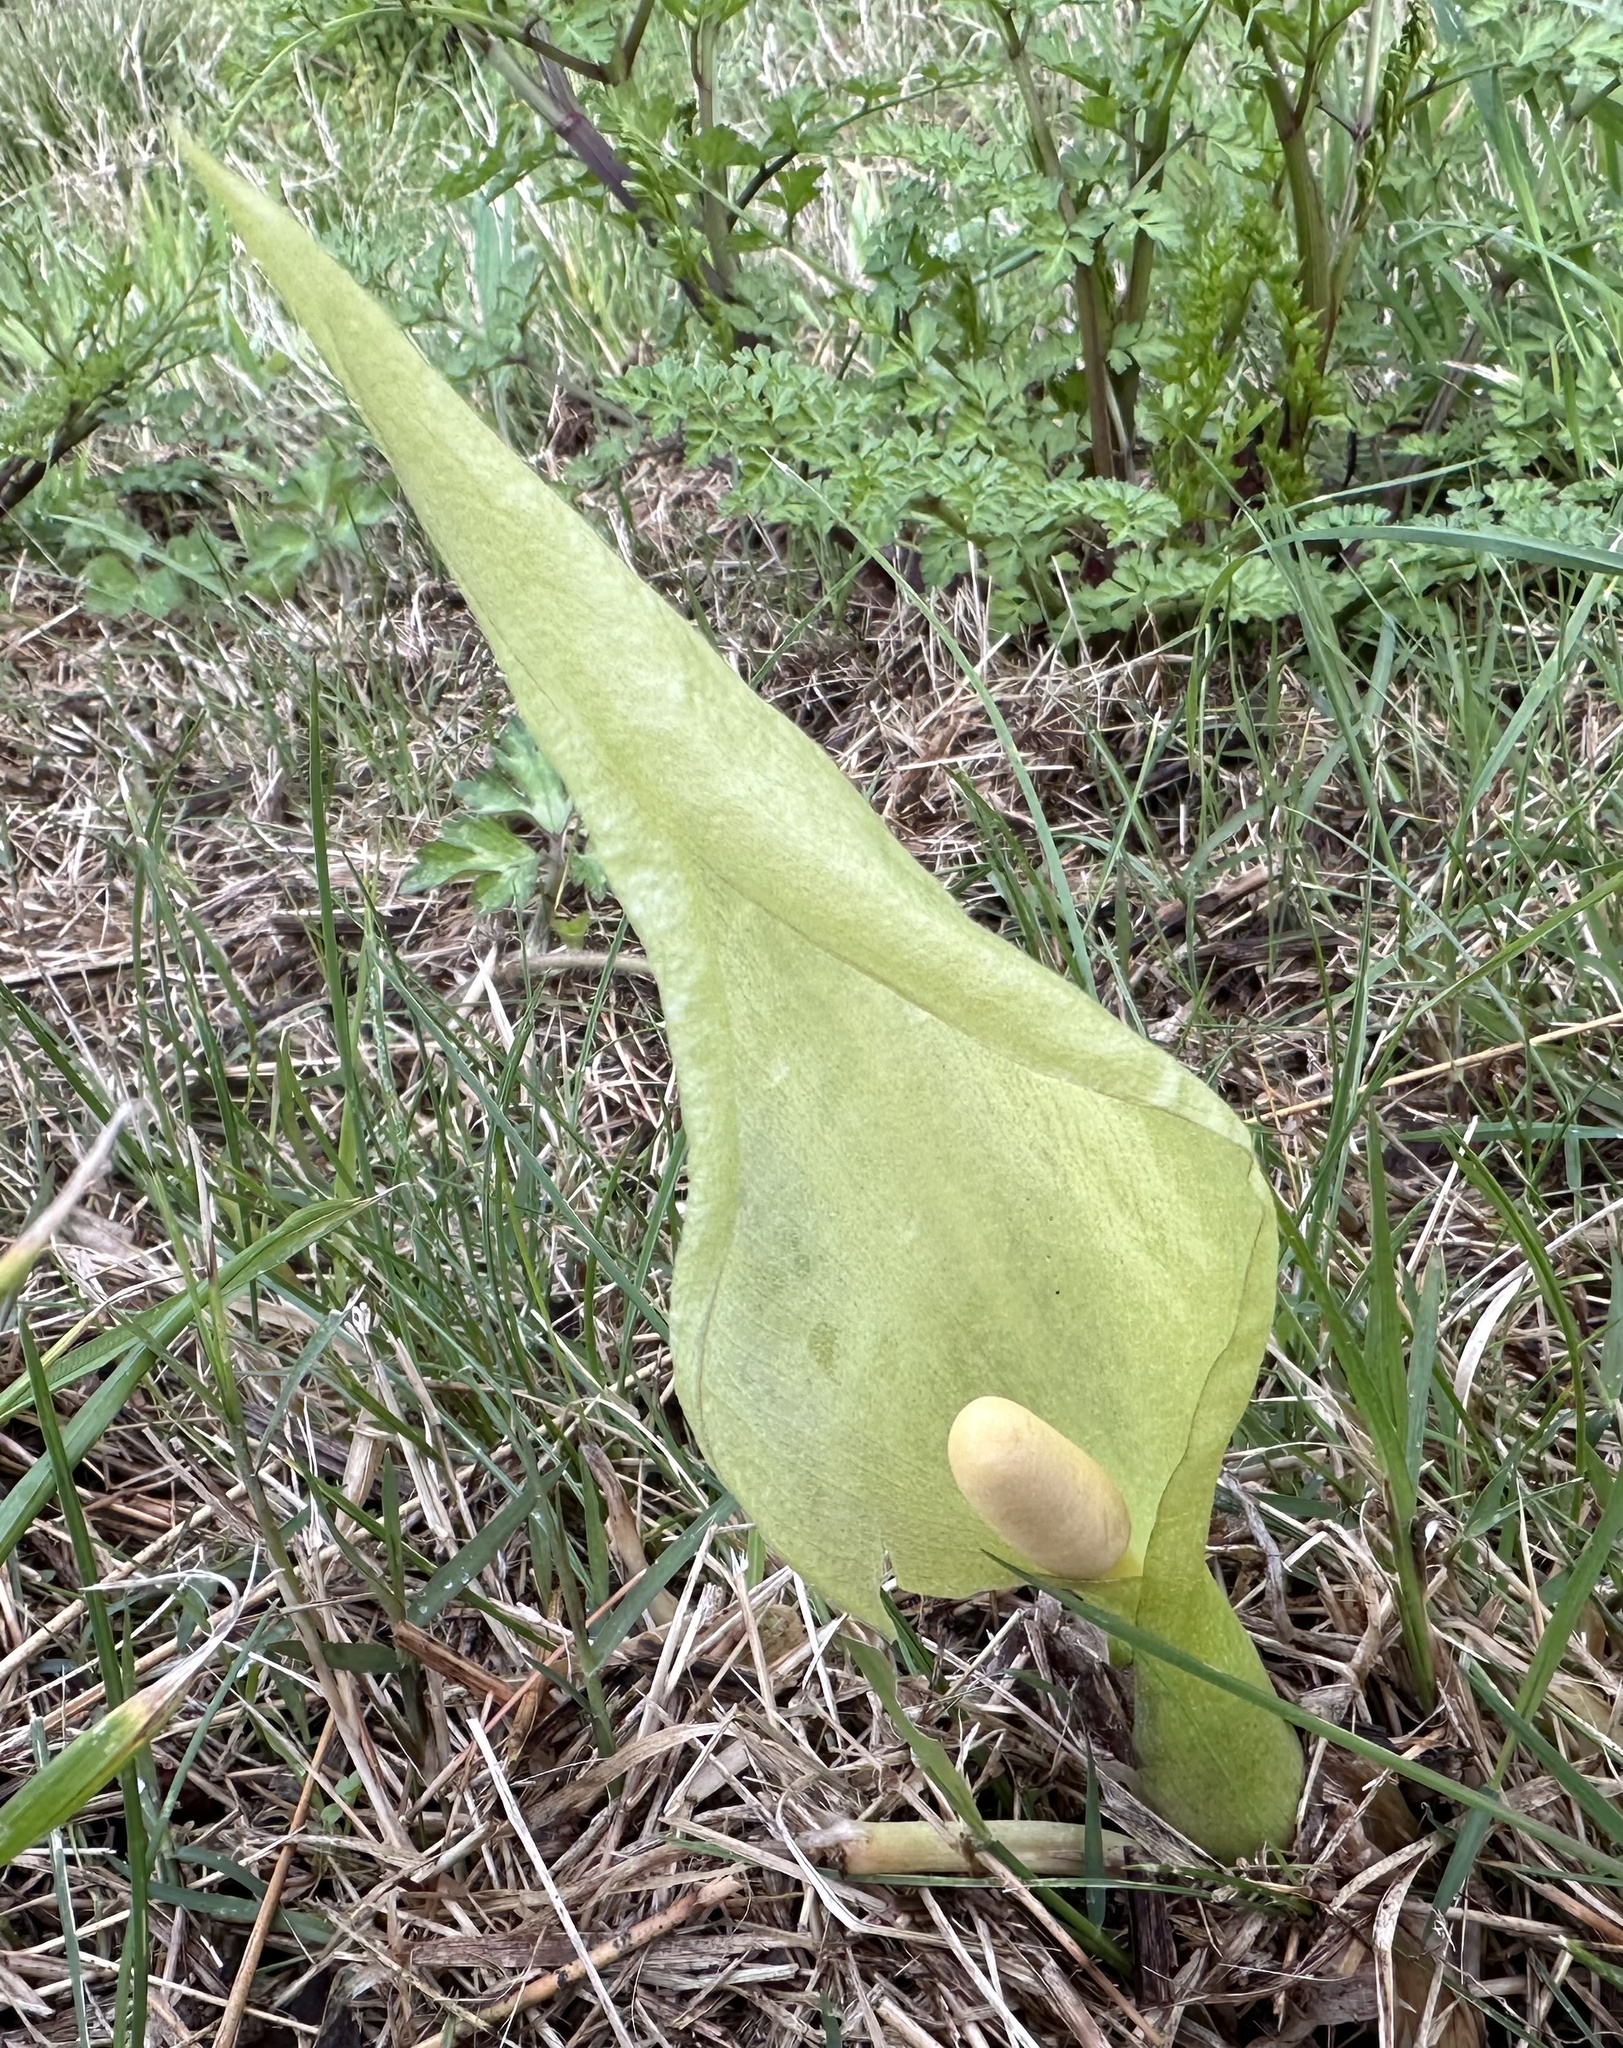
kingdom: Plantae
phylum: Tracheophyta
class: Liliopsida
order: Alismatales
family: Araceae
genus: Arum
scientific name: Arum italicum
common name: Italian lords-and-ladies
